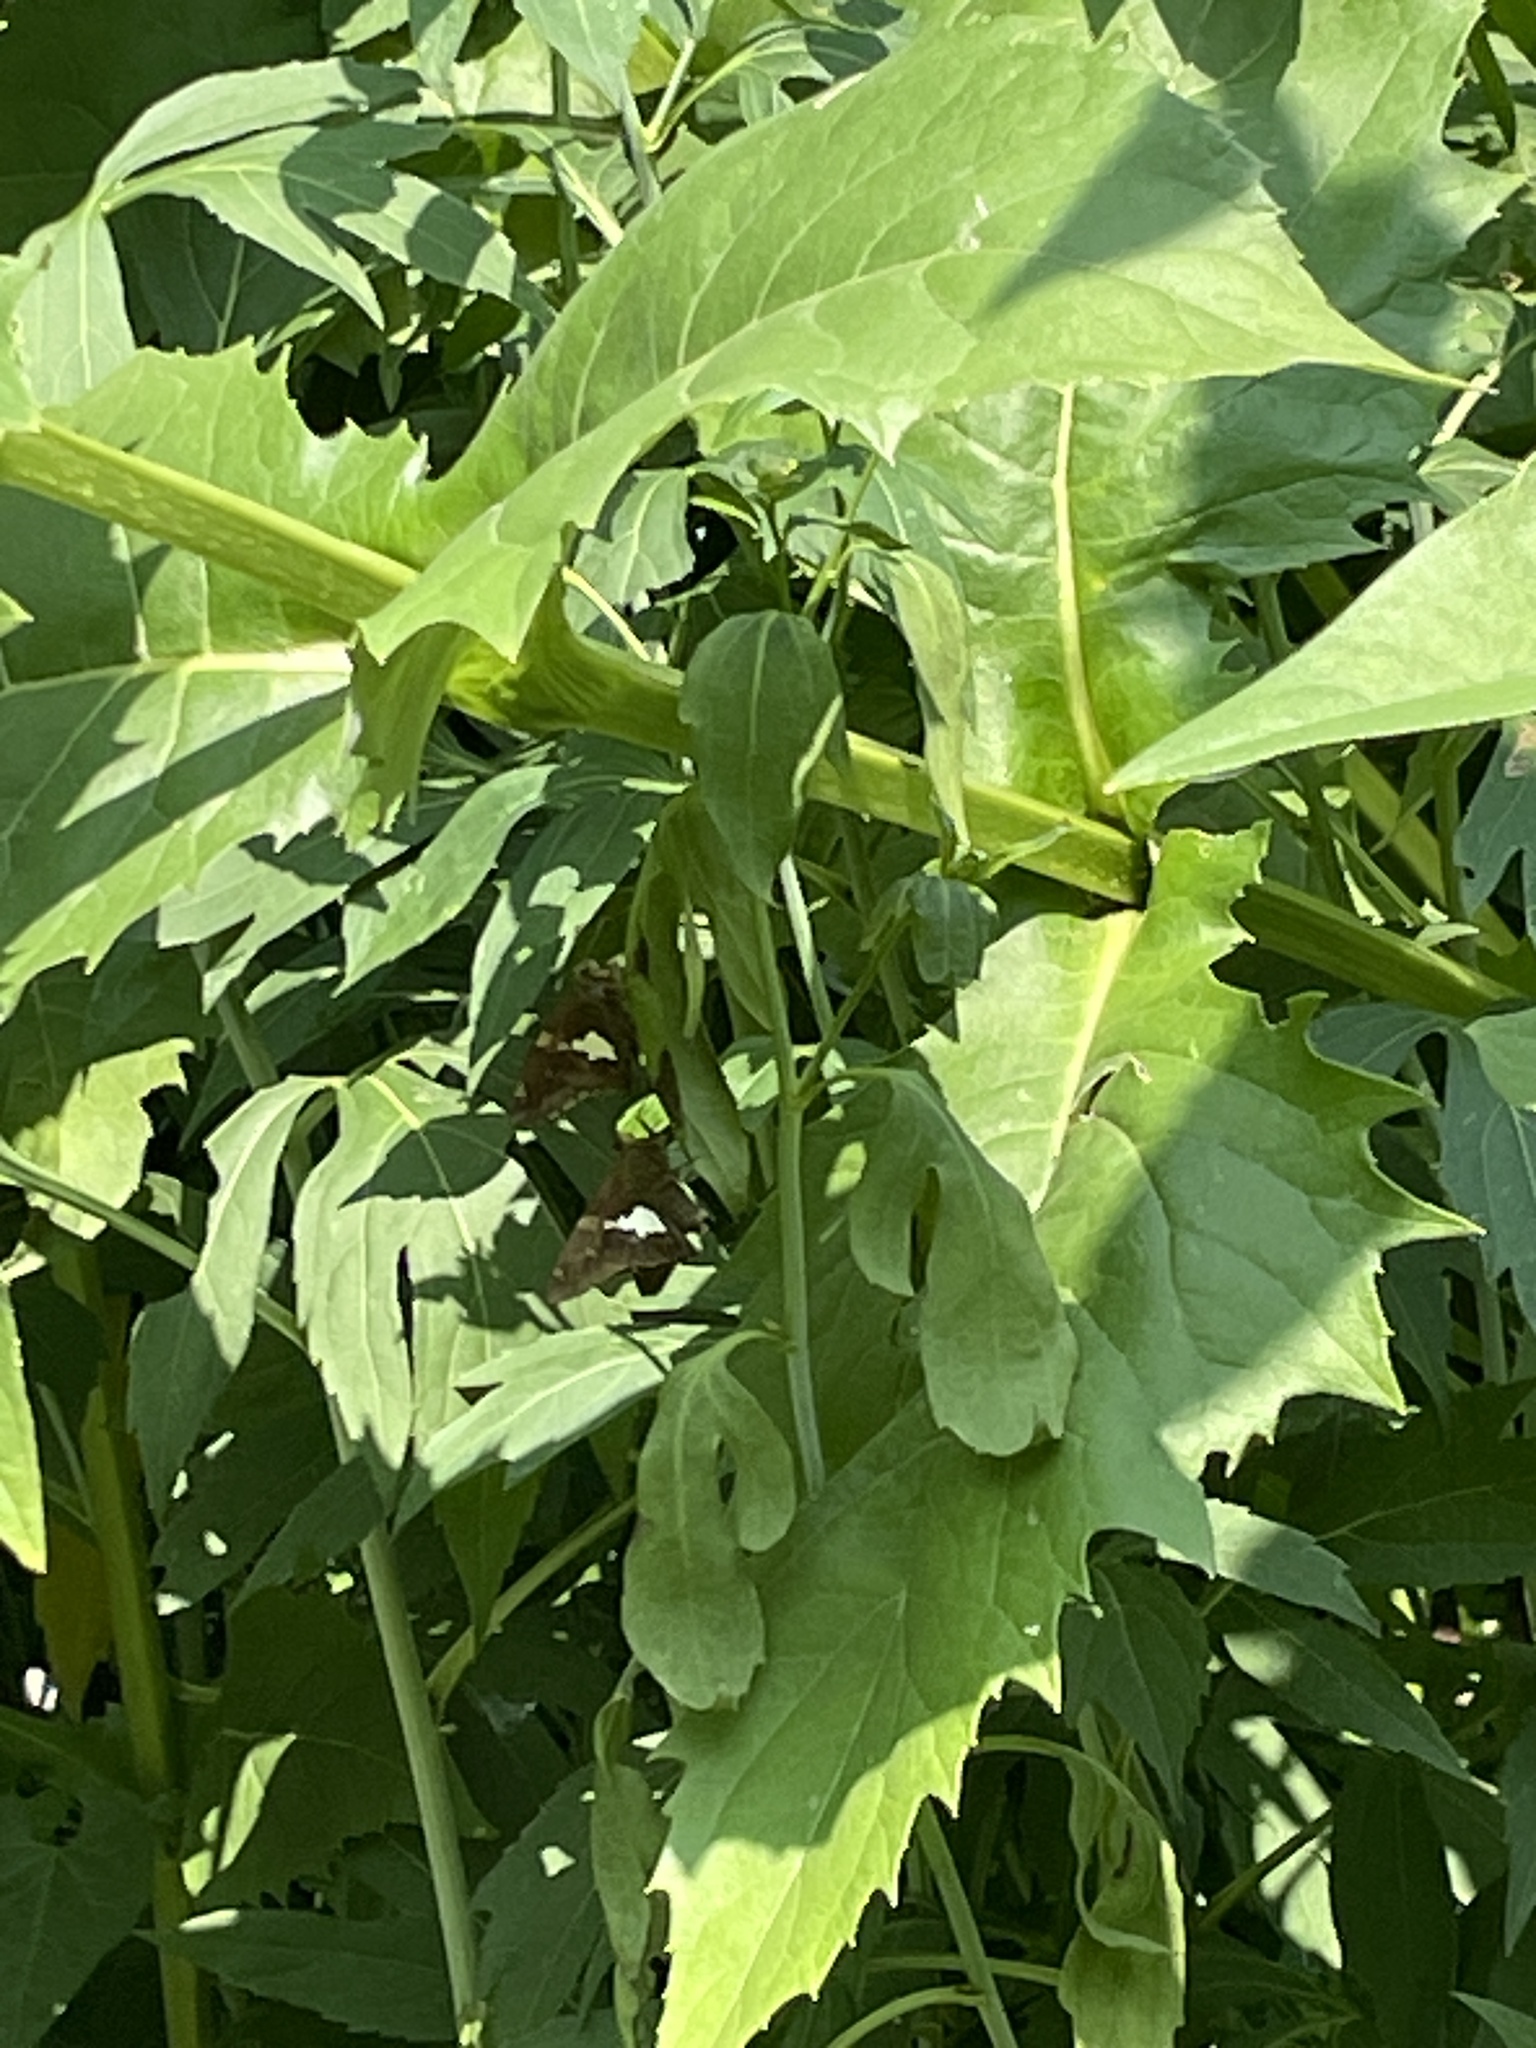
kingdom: Animalia
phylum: Arthropoda
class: Insecta
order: Lepidoptera
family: Hesperiidae
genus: Epargyreus
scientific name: Epargyreus clarus
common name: Silver-spotted skipper
